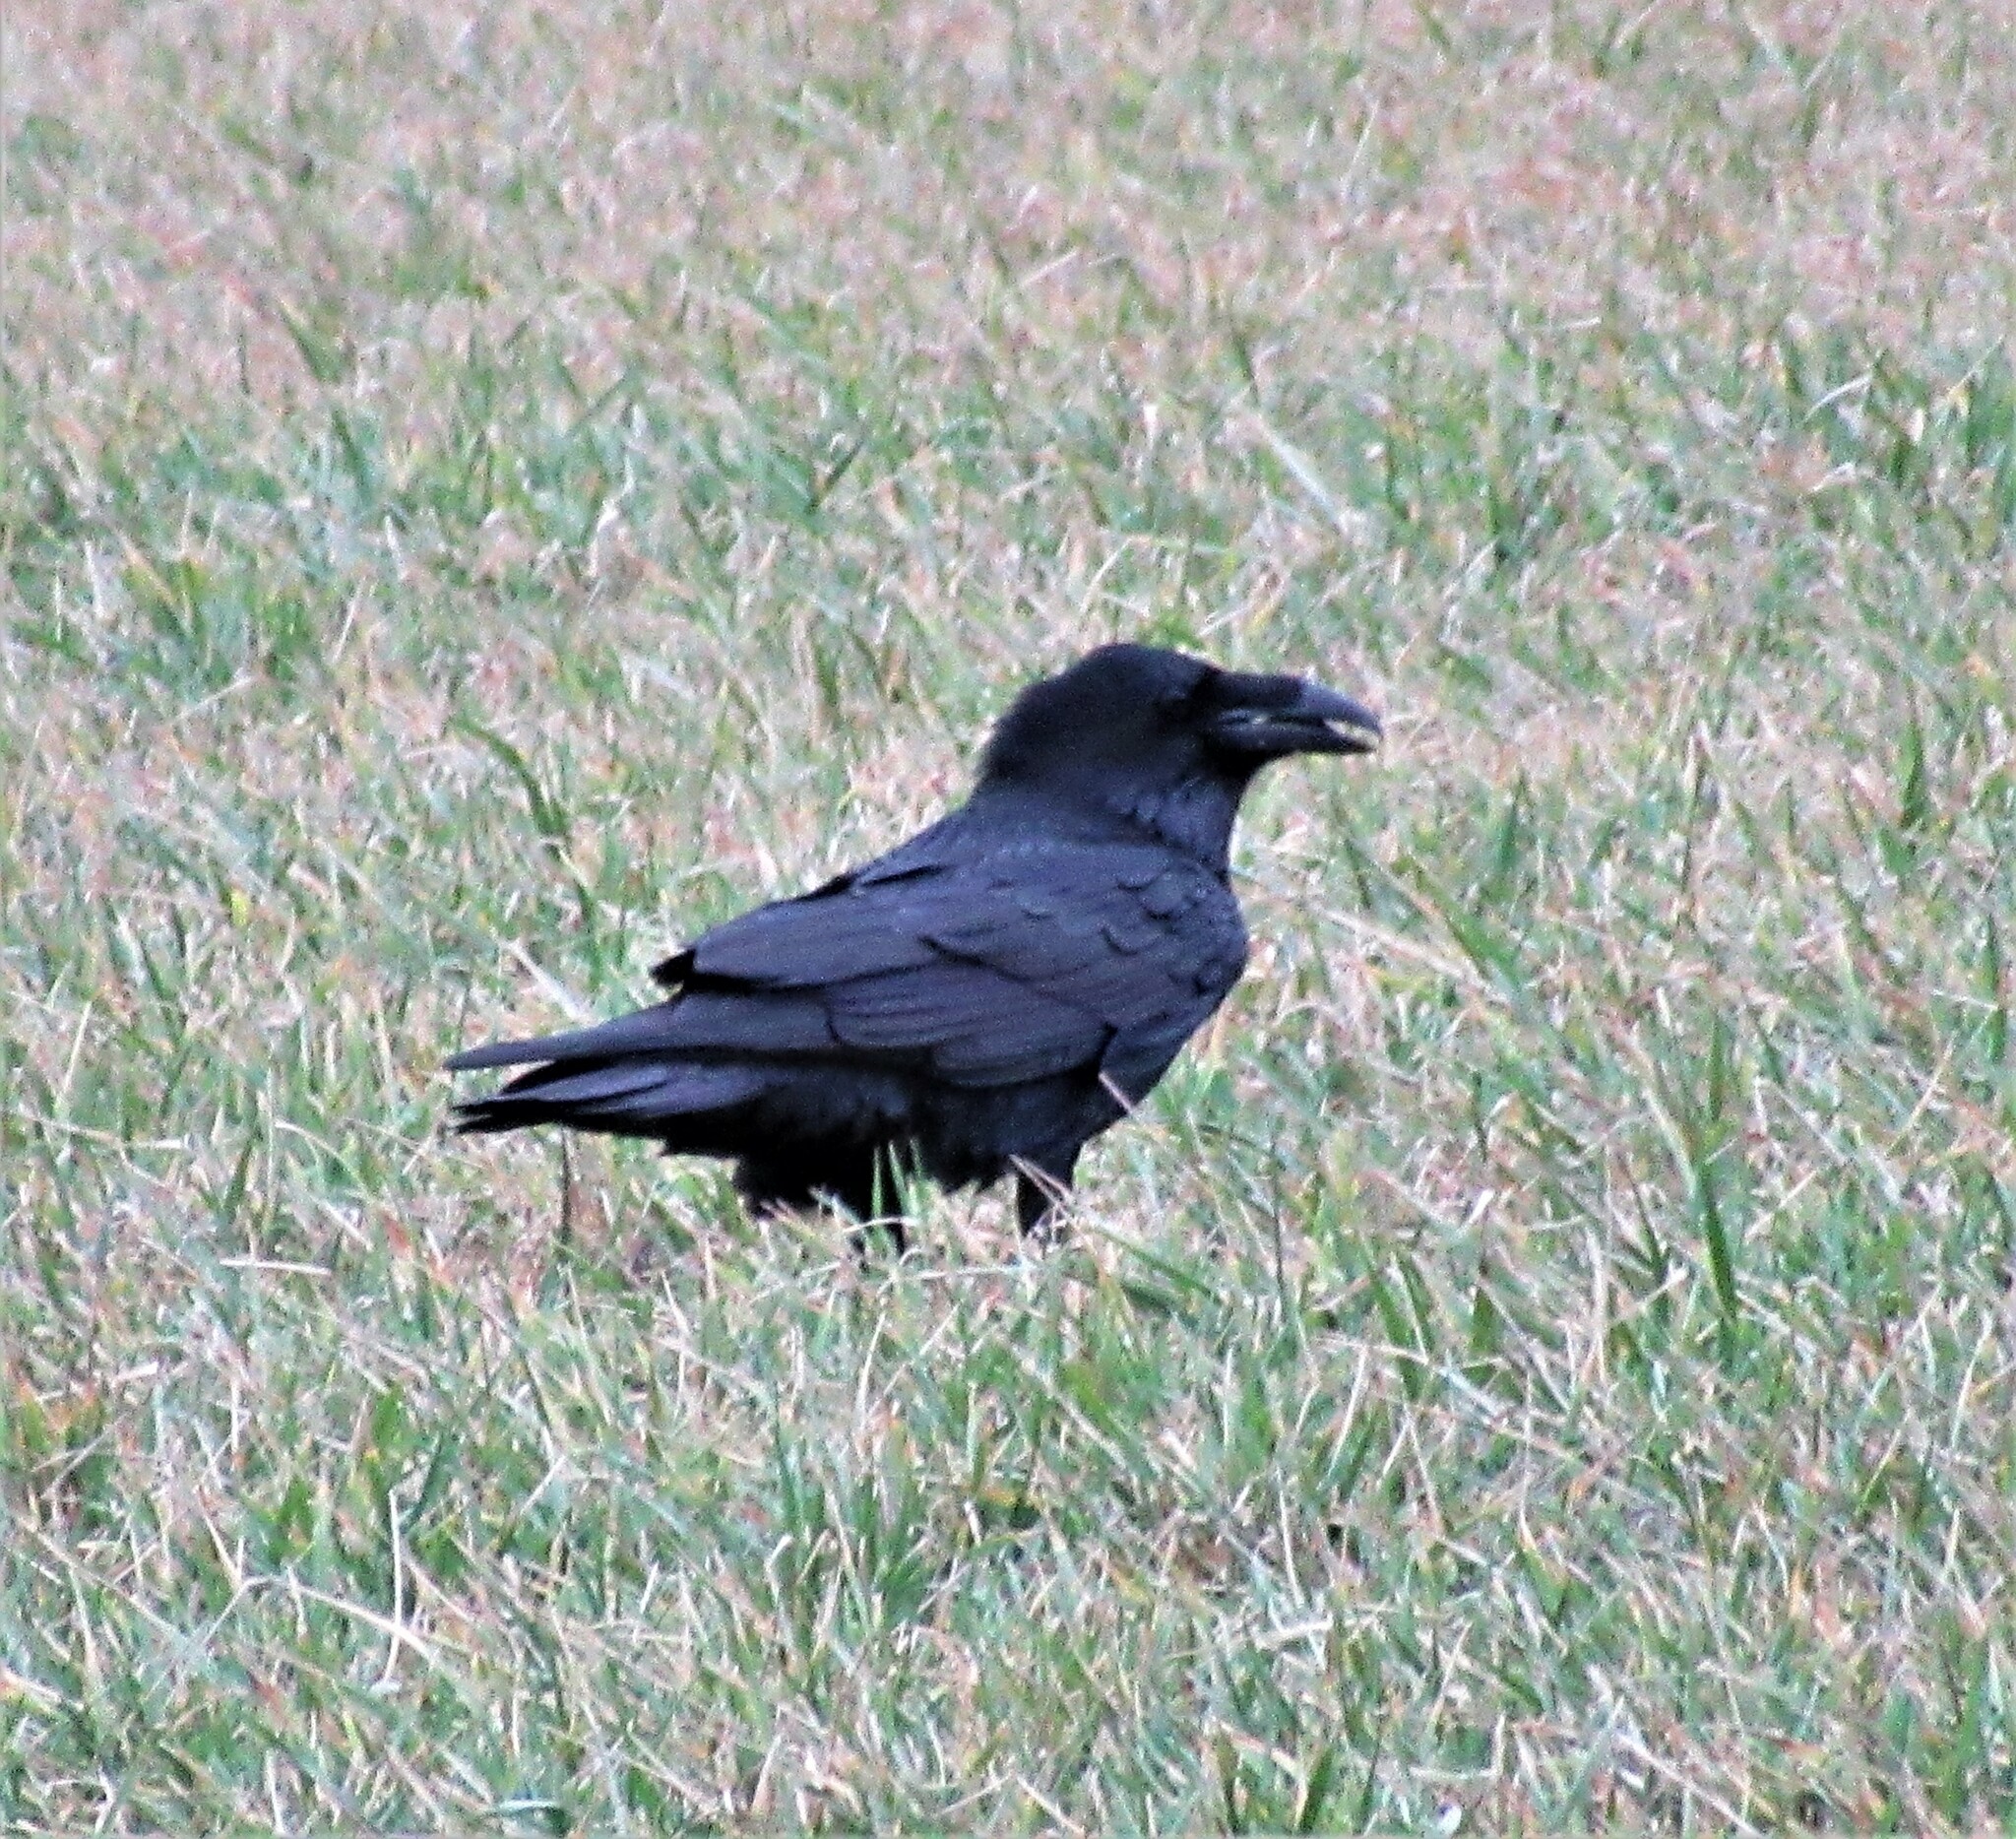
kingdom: Animalia
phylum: Chordata
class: Aves
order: Passeriformes
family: Corvidae
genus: Corvus
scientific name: Corvus corax
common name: Common raven
